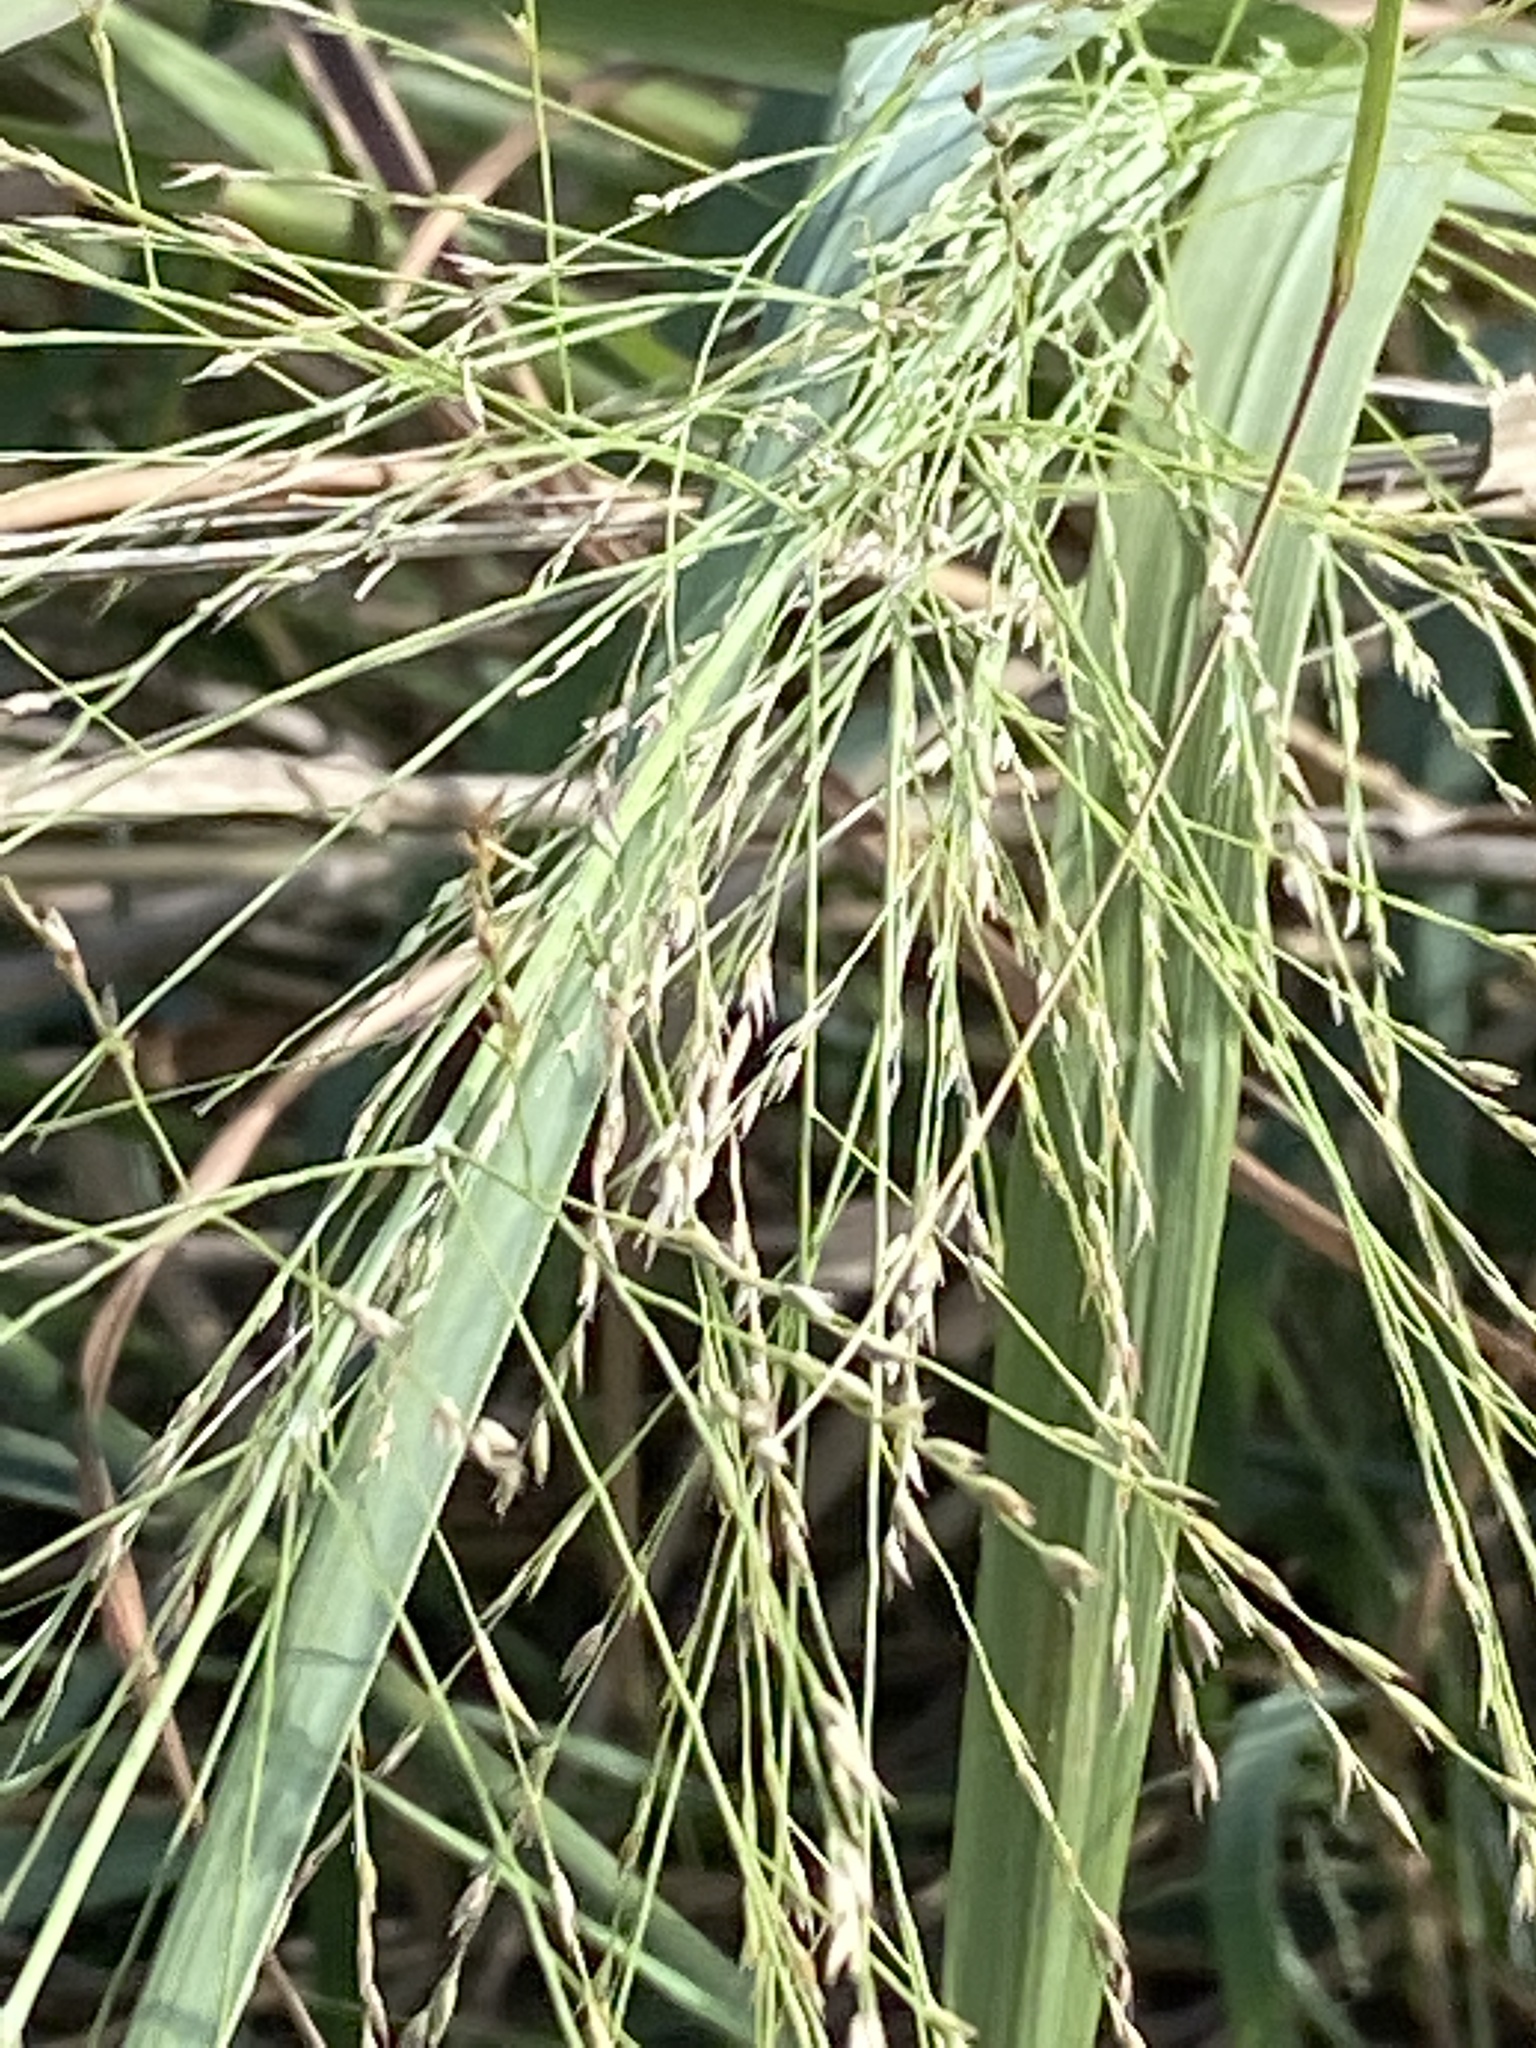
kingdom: Plantae
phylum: Tracheophyta
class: Liliopsida
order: Poales
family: Poaceae
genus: Panicum
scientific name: Panicum virgatum
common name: Switchgrass
